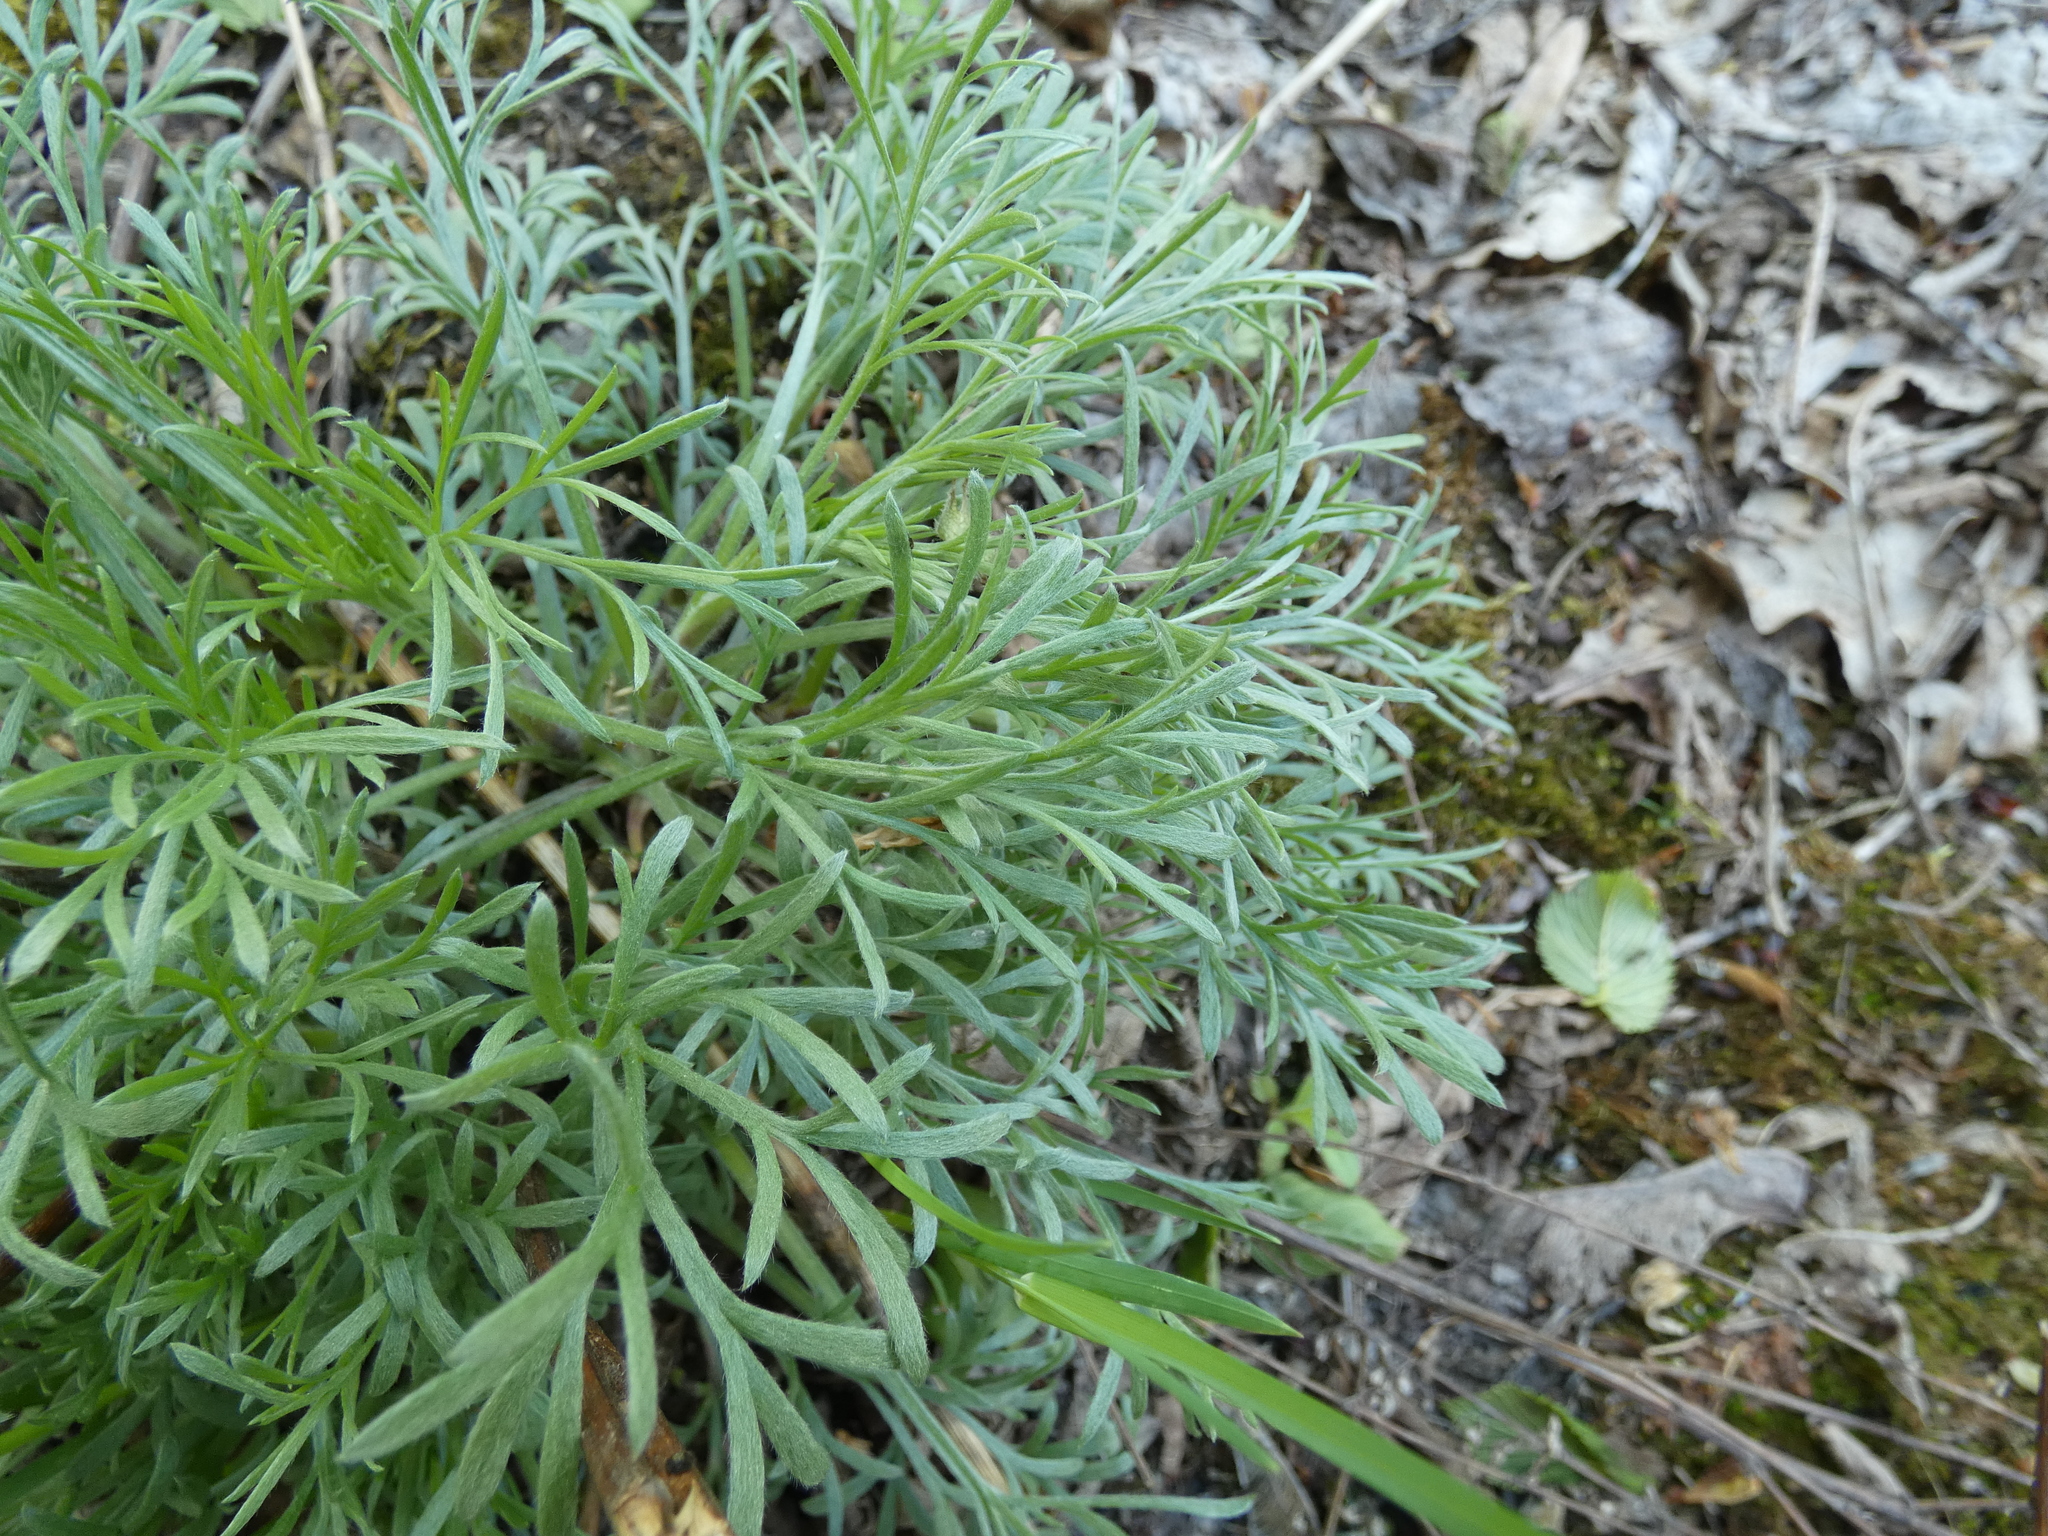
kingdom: Plantae
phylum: Tracheophyta
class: Magnoliopsida
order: Asterales
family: Asteraceae
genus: Artemisia
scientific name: Artemisia absinthium
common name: Wormwood
